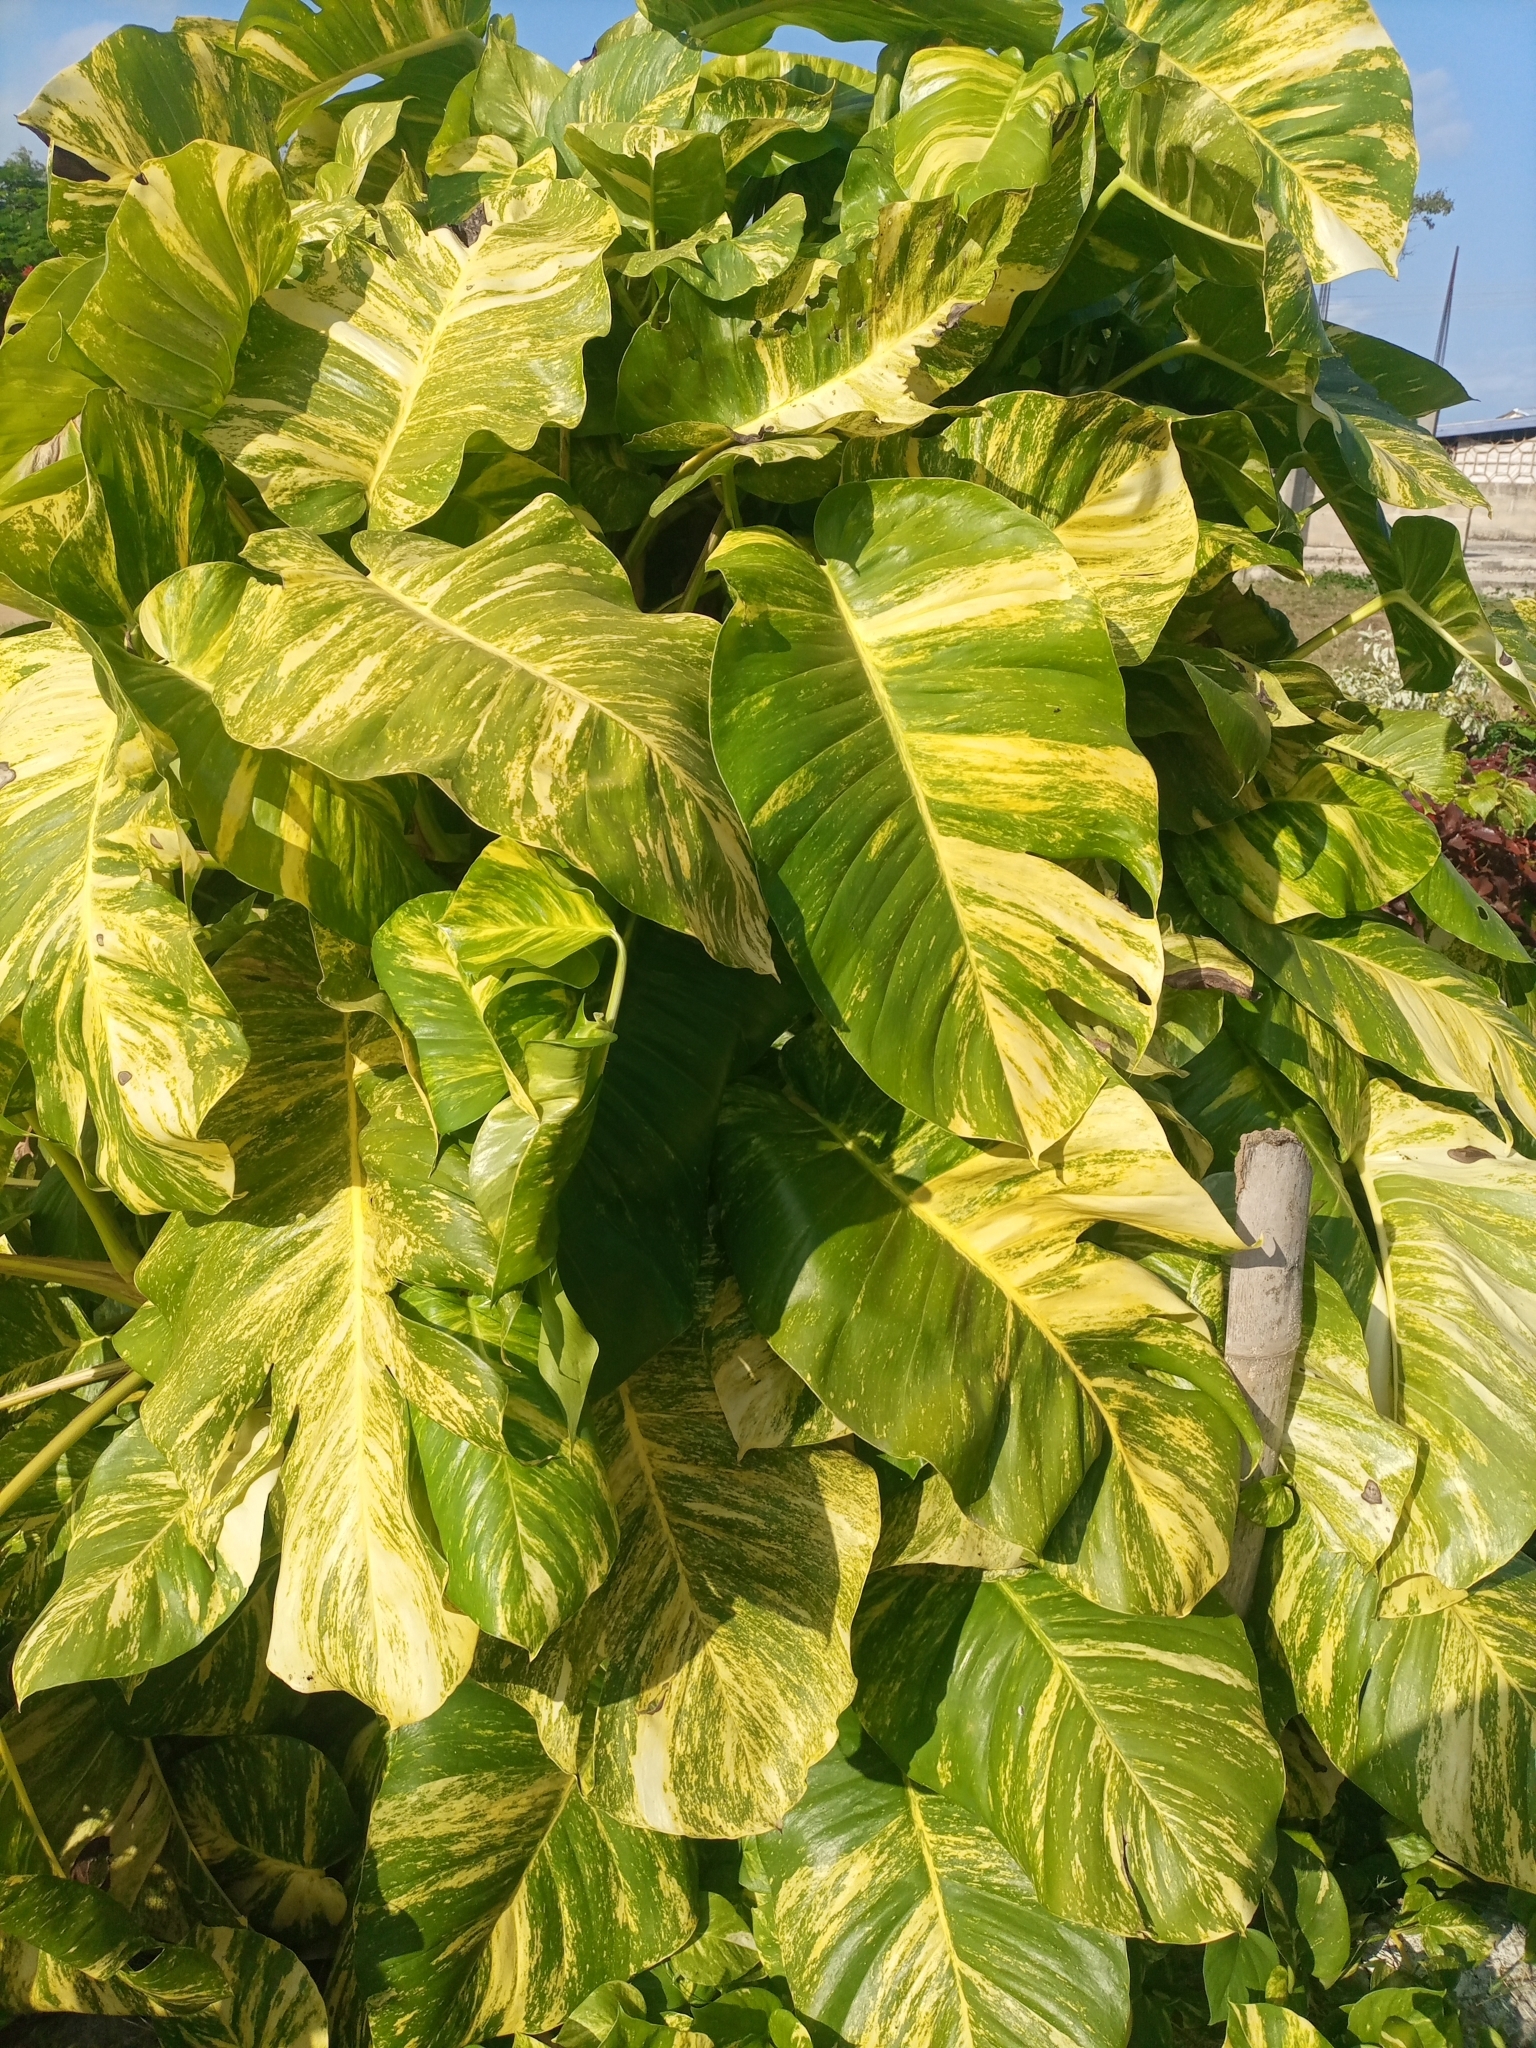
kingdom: Plantae
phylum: Tracheophyta
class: Liliopsida
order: Alismatales
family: Araceae
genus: Epipremnum
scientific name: Epipremnum aureum
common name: Golden hunter's-robe
